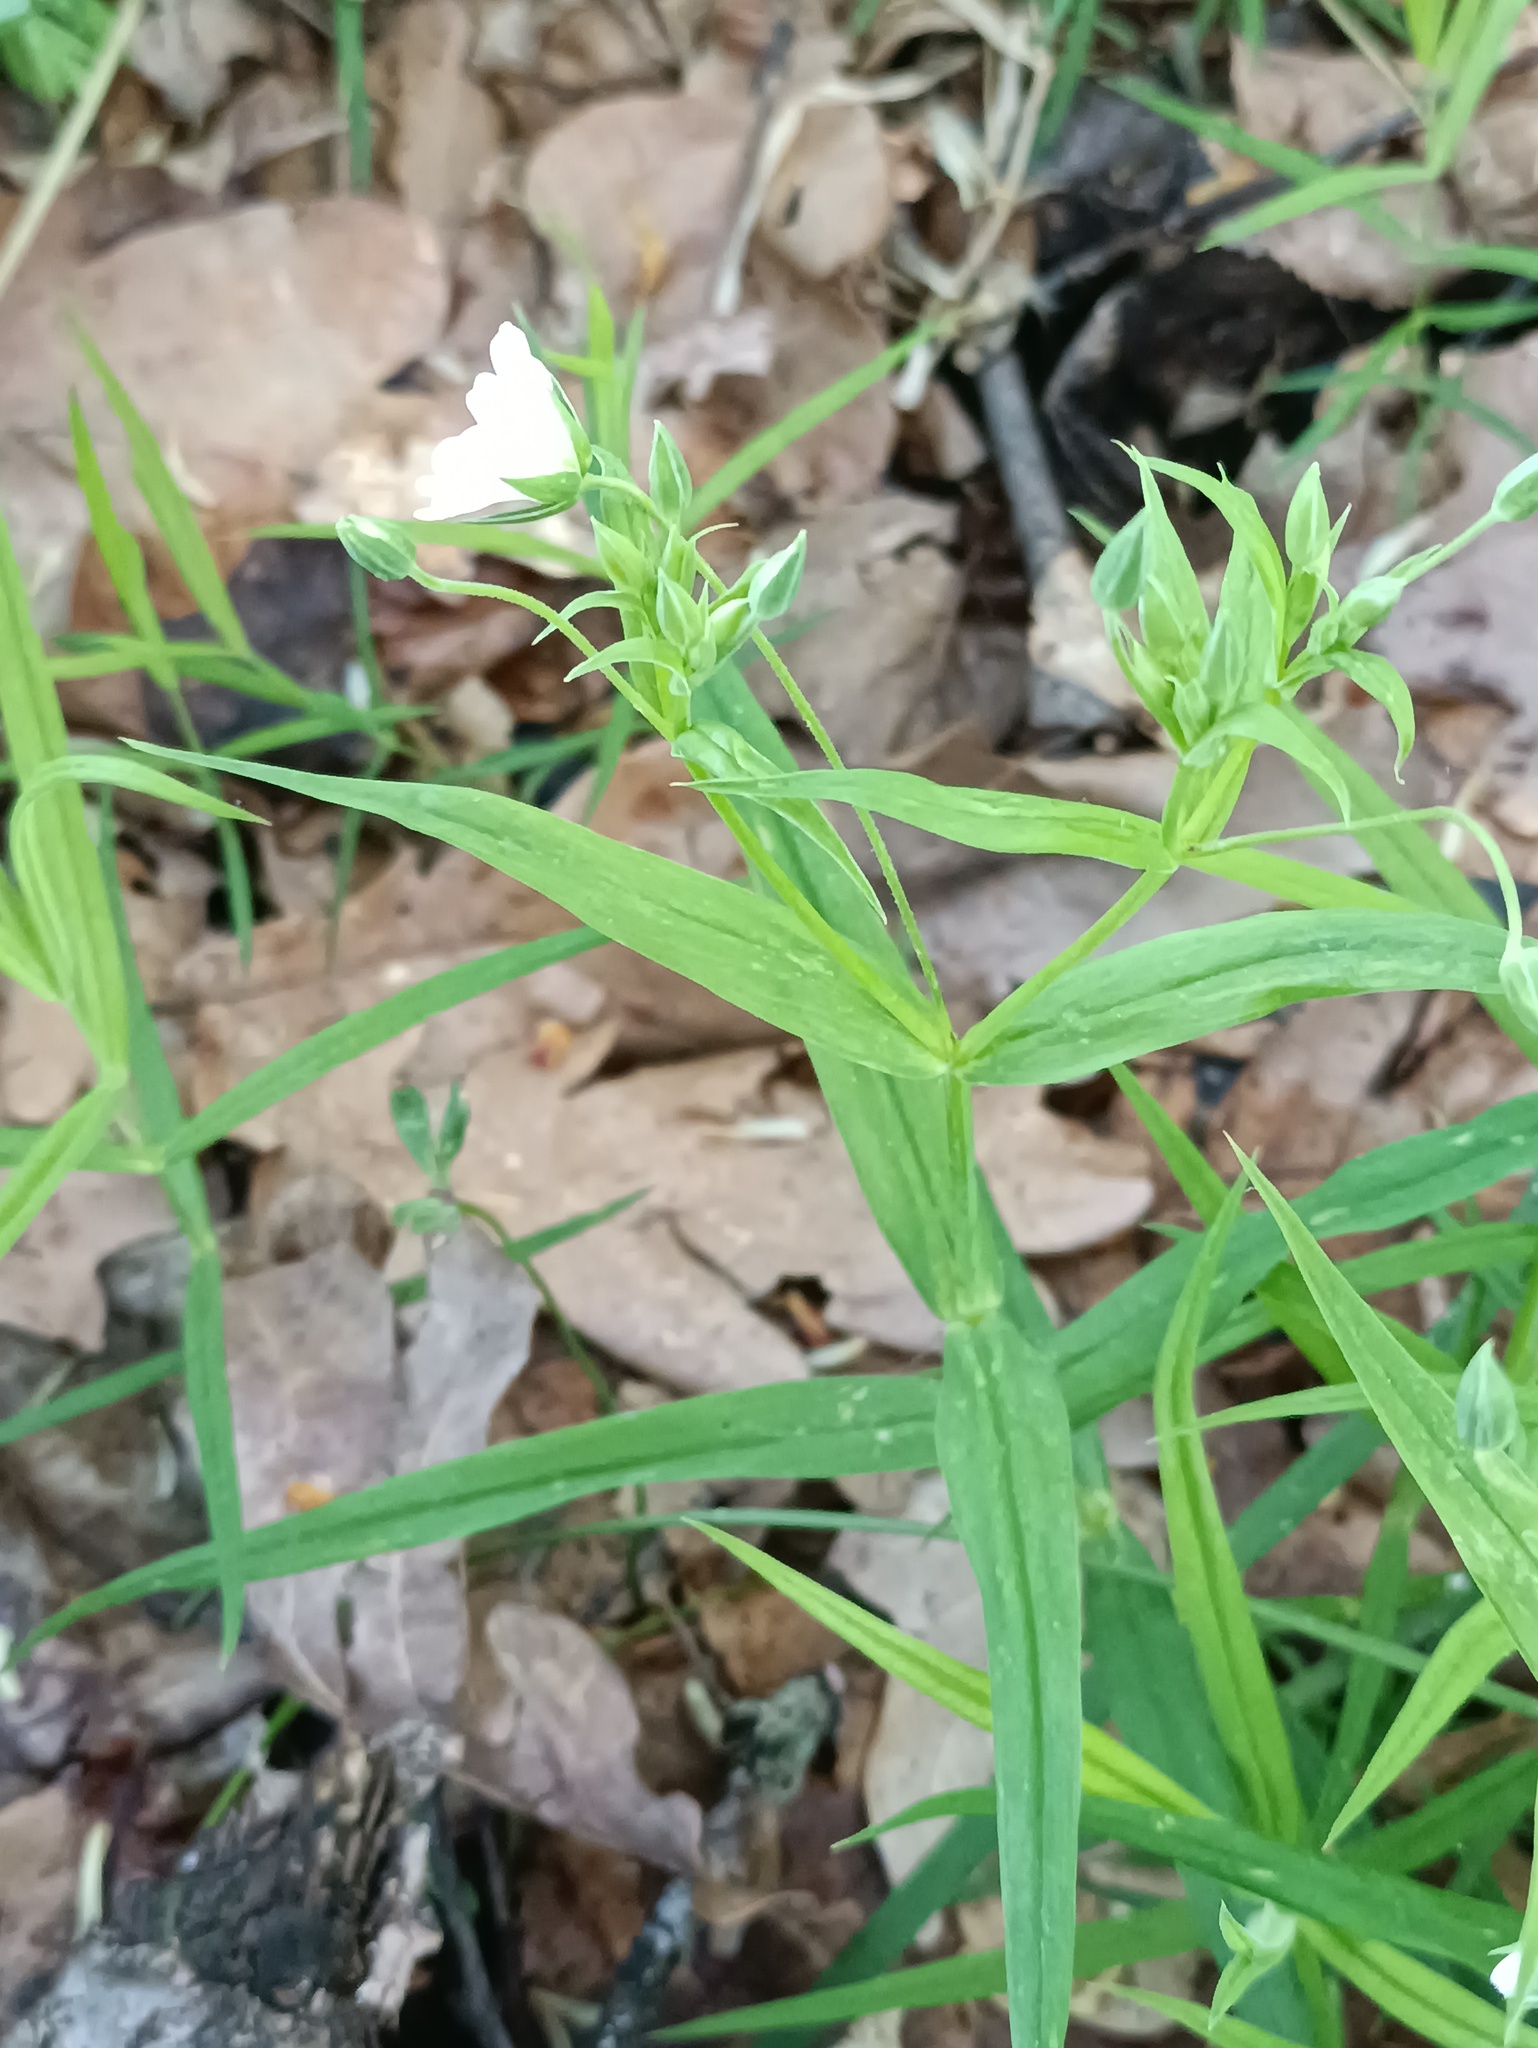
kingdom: Plantae
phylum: Tracheophyta
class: Magnoliopsida
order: Caryophyllales
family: Caryophyllaceae
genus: Rabelera
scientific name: Rabelera holostea
